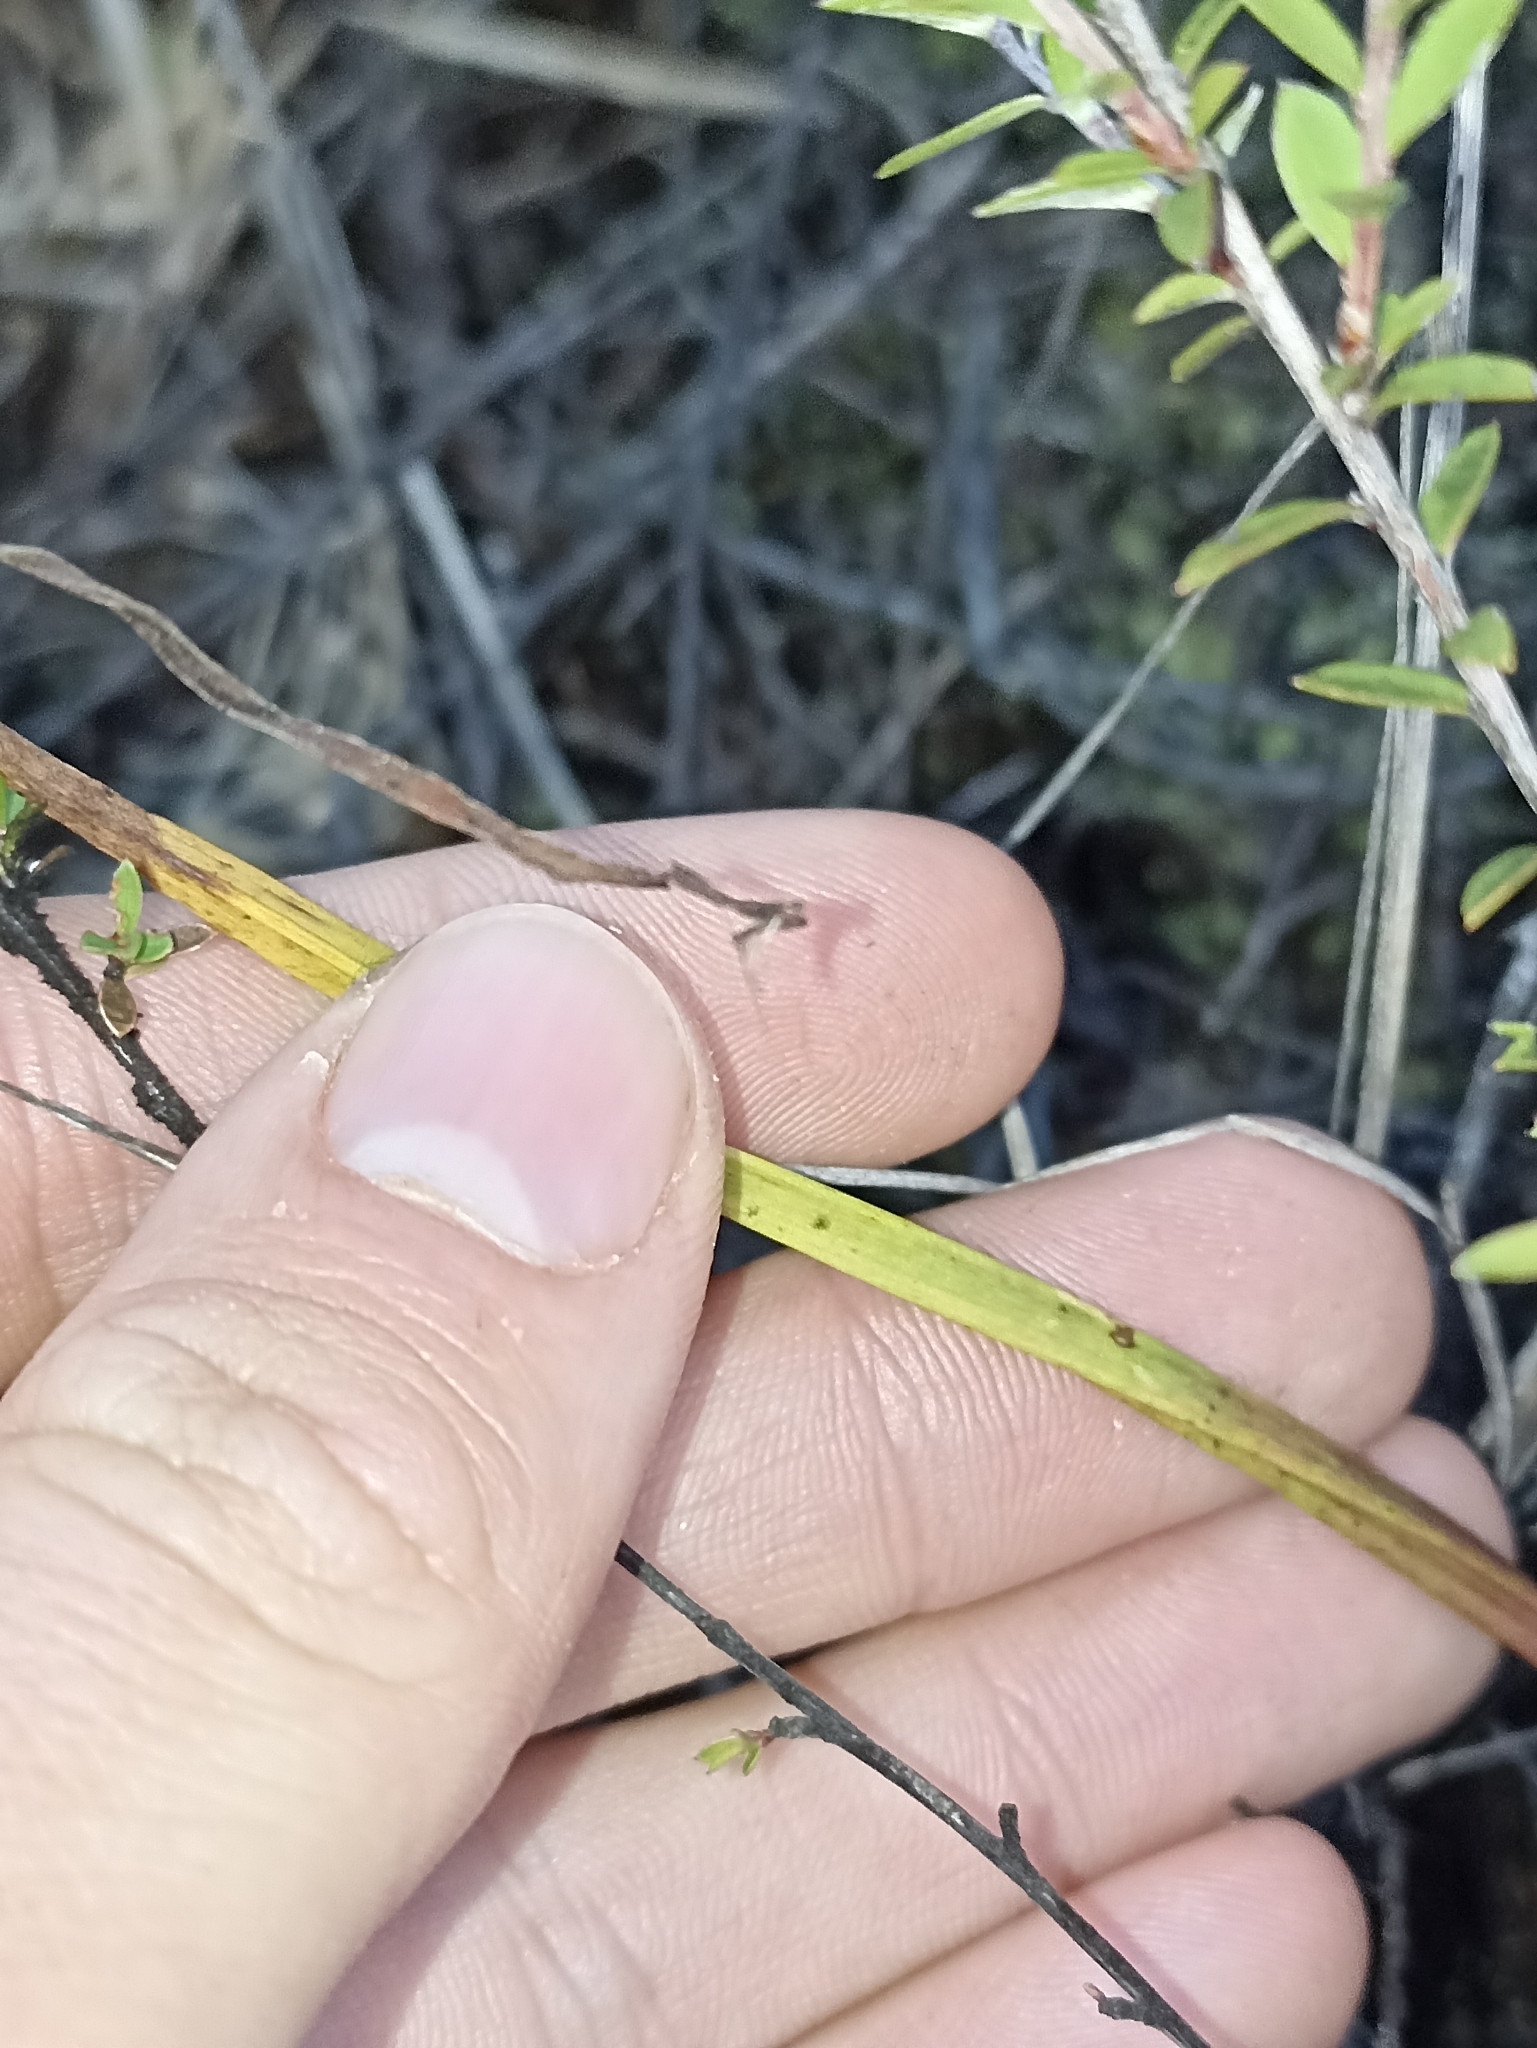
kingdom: Plantae
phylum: Tracheophyta
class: Liliopsida
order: Asparagales
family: Orchidaceae
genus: Calochilus
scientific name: Calochilus robertsonii
